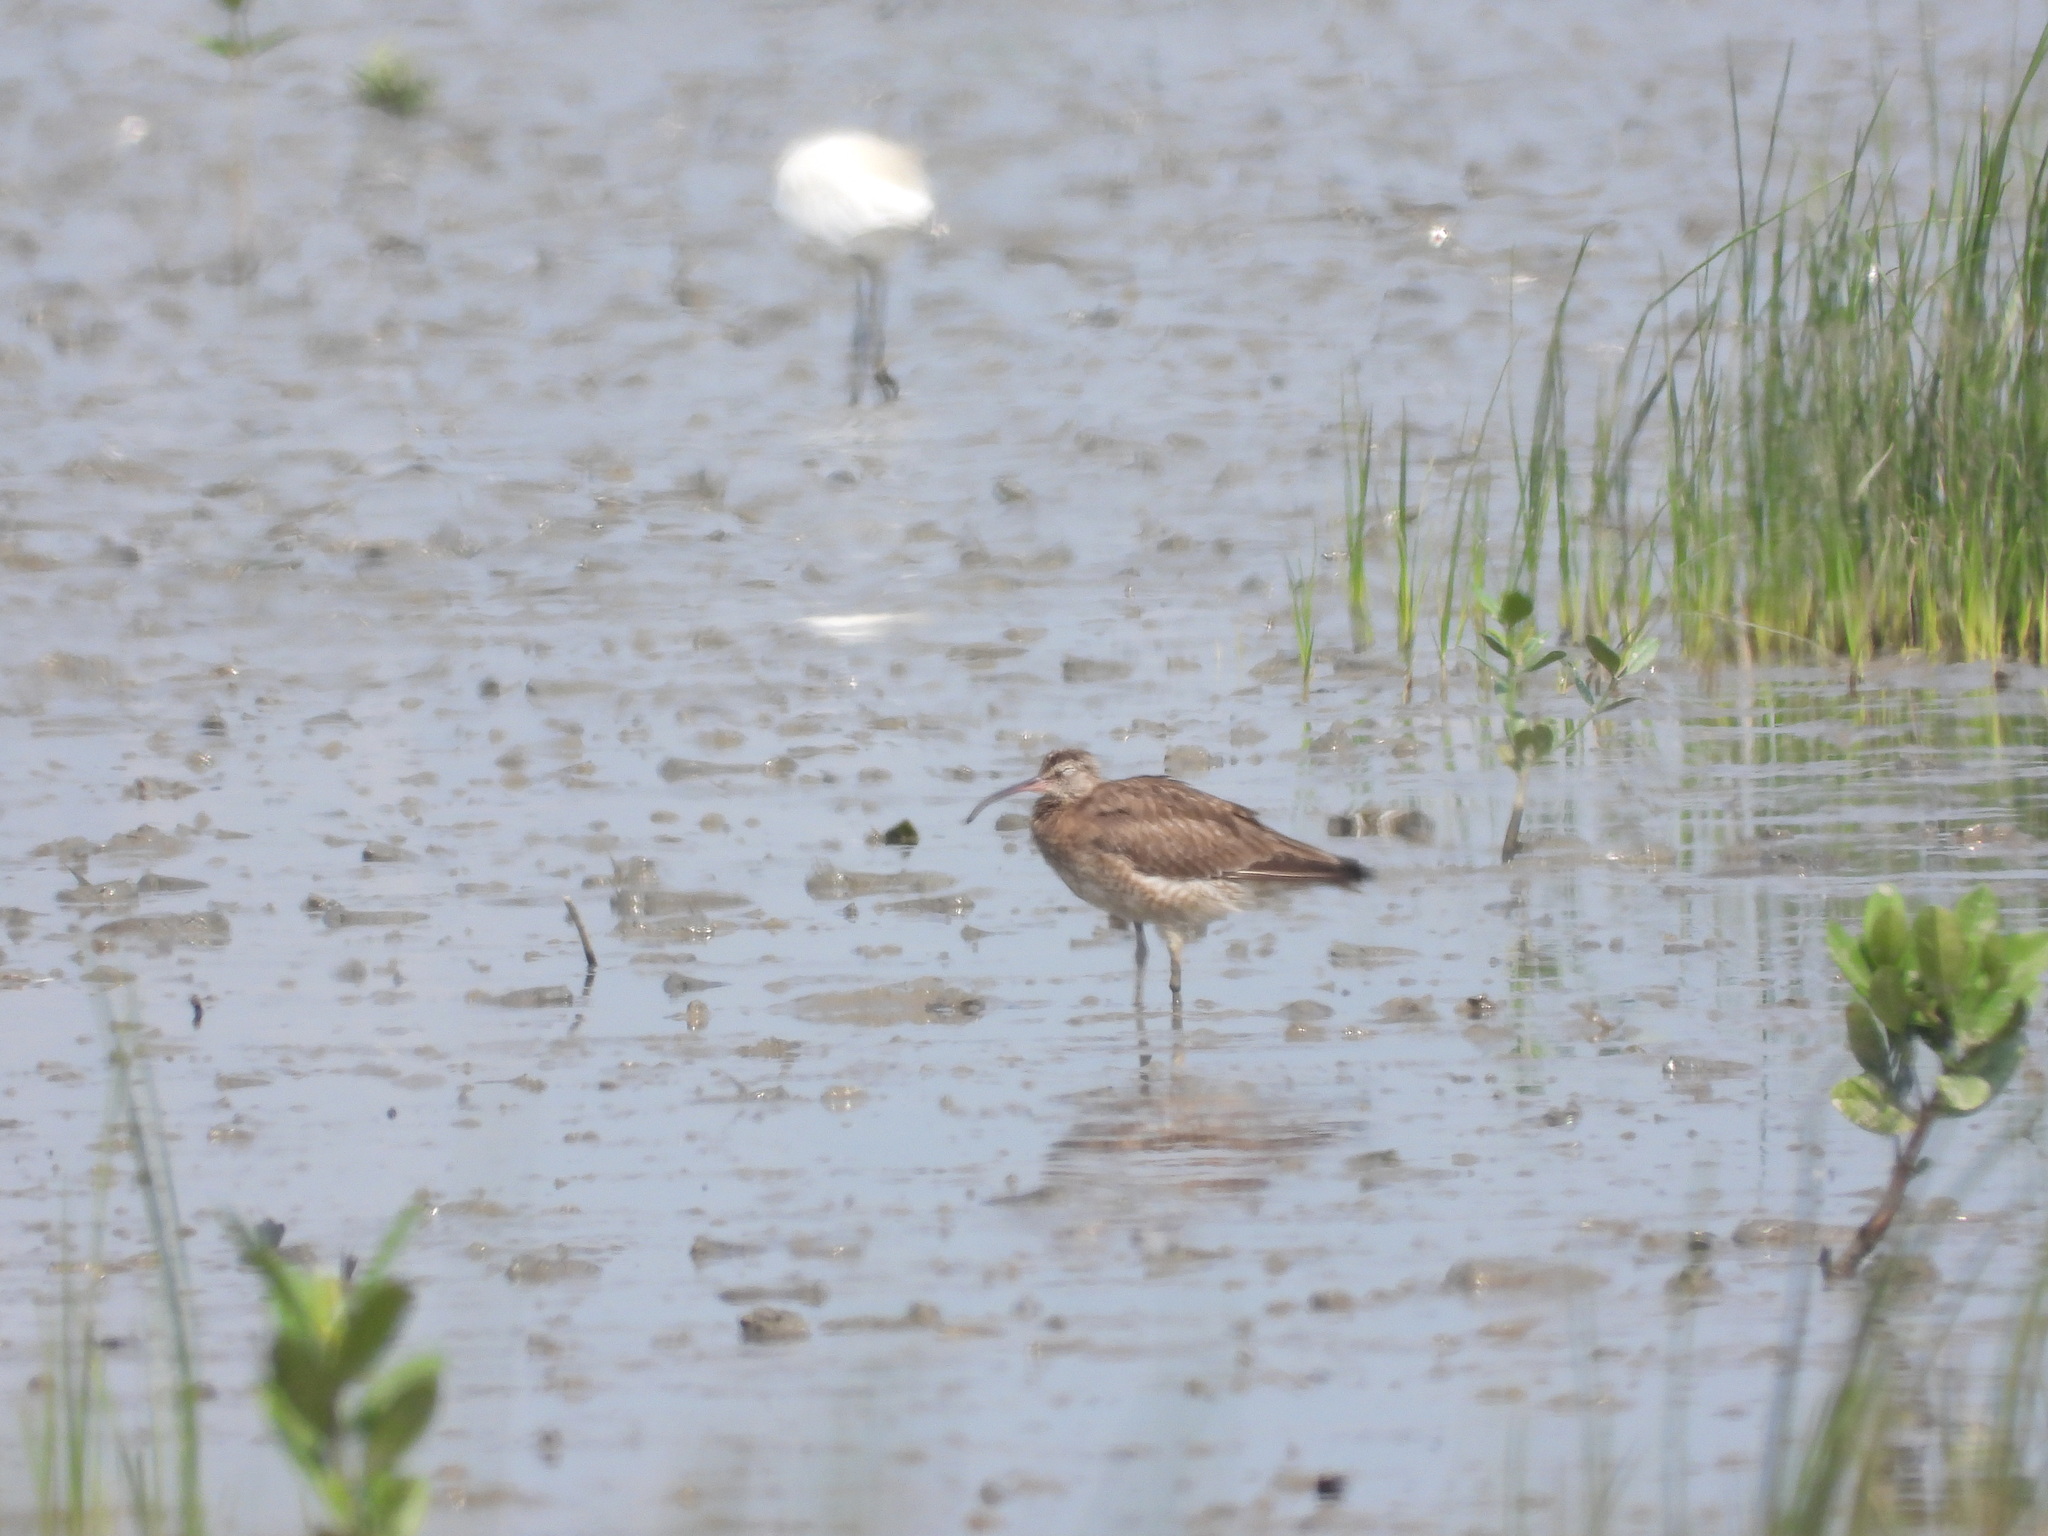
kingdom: Animalia
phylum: Chordata
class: Aves
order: Charadriiformes
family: Scolopacidae
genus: Numenius
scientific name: Numenius phaeopus
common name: Whimbrel
